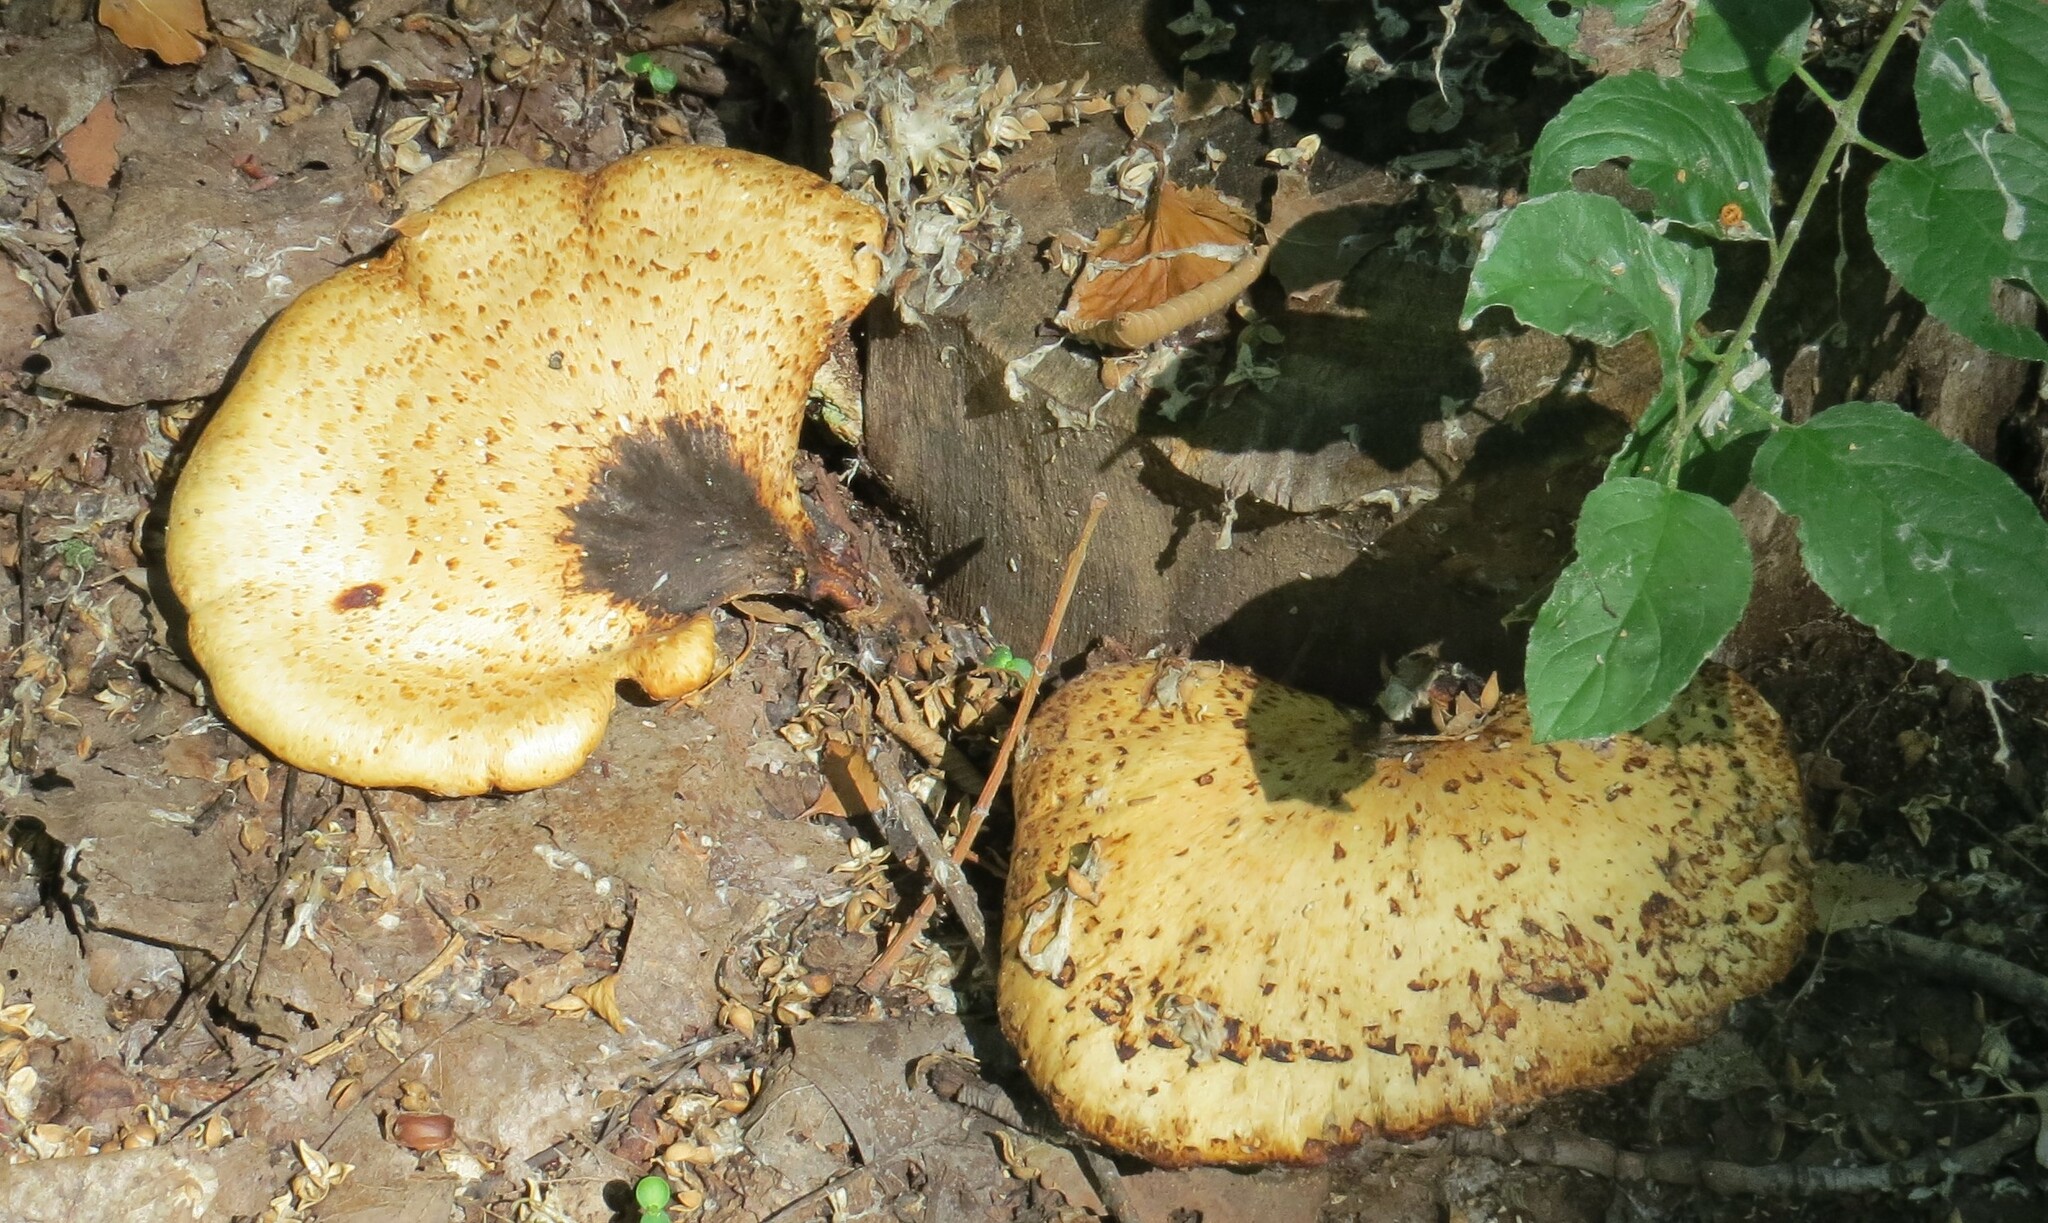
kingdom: Fungi
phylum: Basidiomycota
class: Agaricomycetes
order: Polyporales
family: Polyporaceae
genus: Cerioporus
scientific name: Cerioporus squamosus
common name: Dryad's saddle
